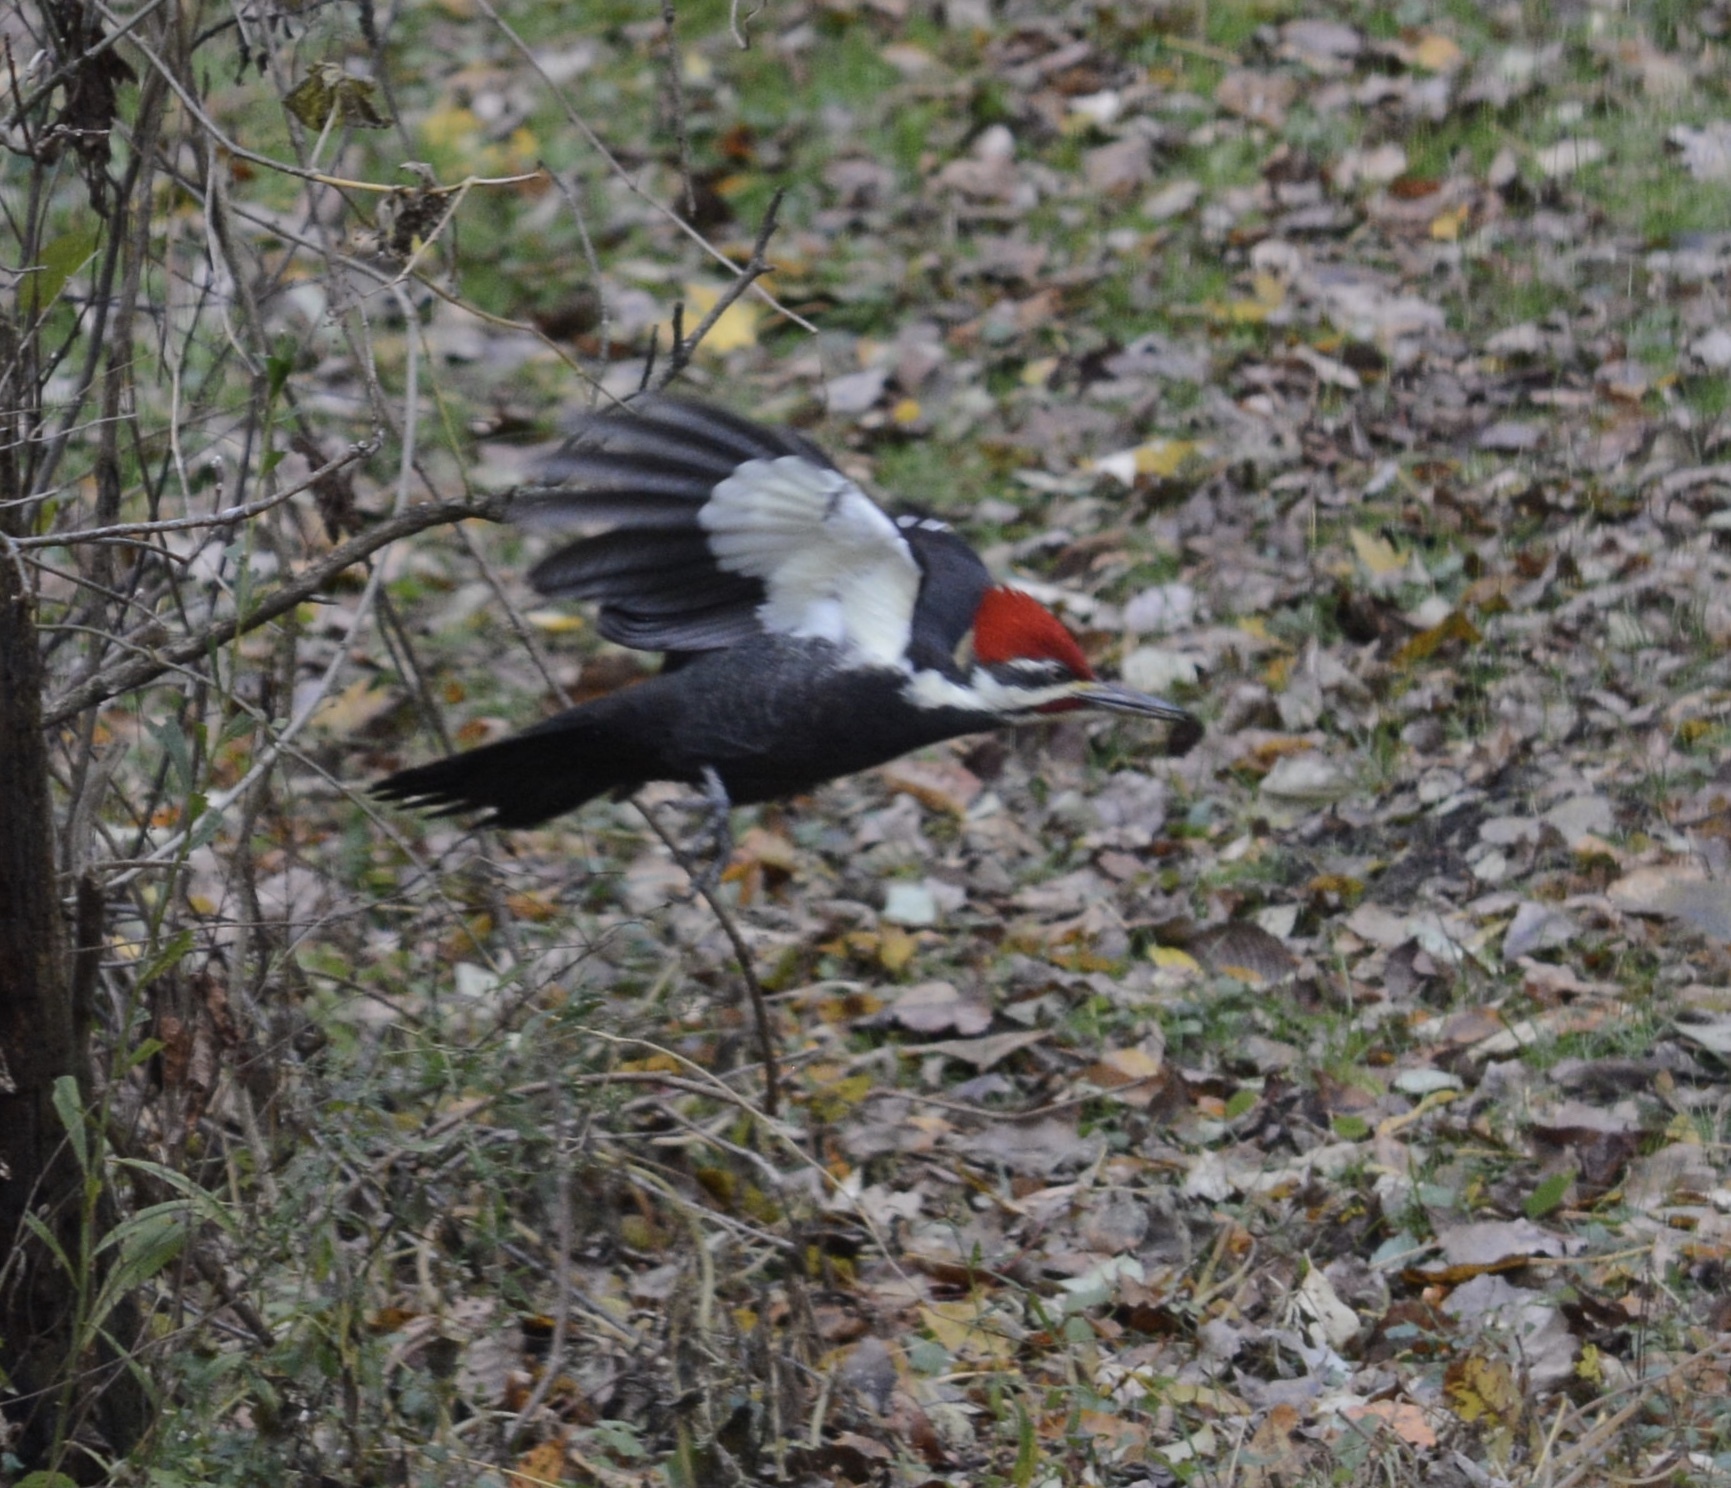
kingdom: Animalia
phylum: Chordata
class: Aves
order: Piciformes
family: Picidae
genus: Dryocopus
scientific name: Dryocopus pileatus
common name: Pileated woodpecker
